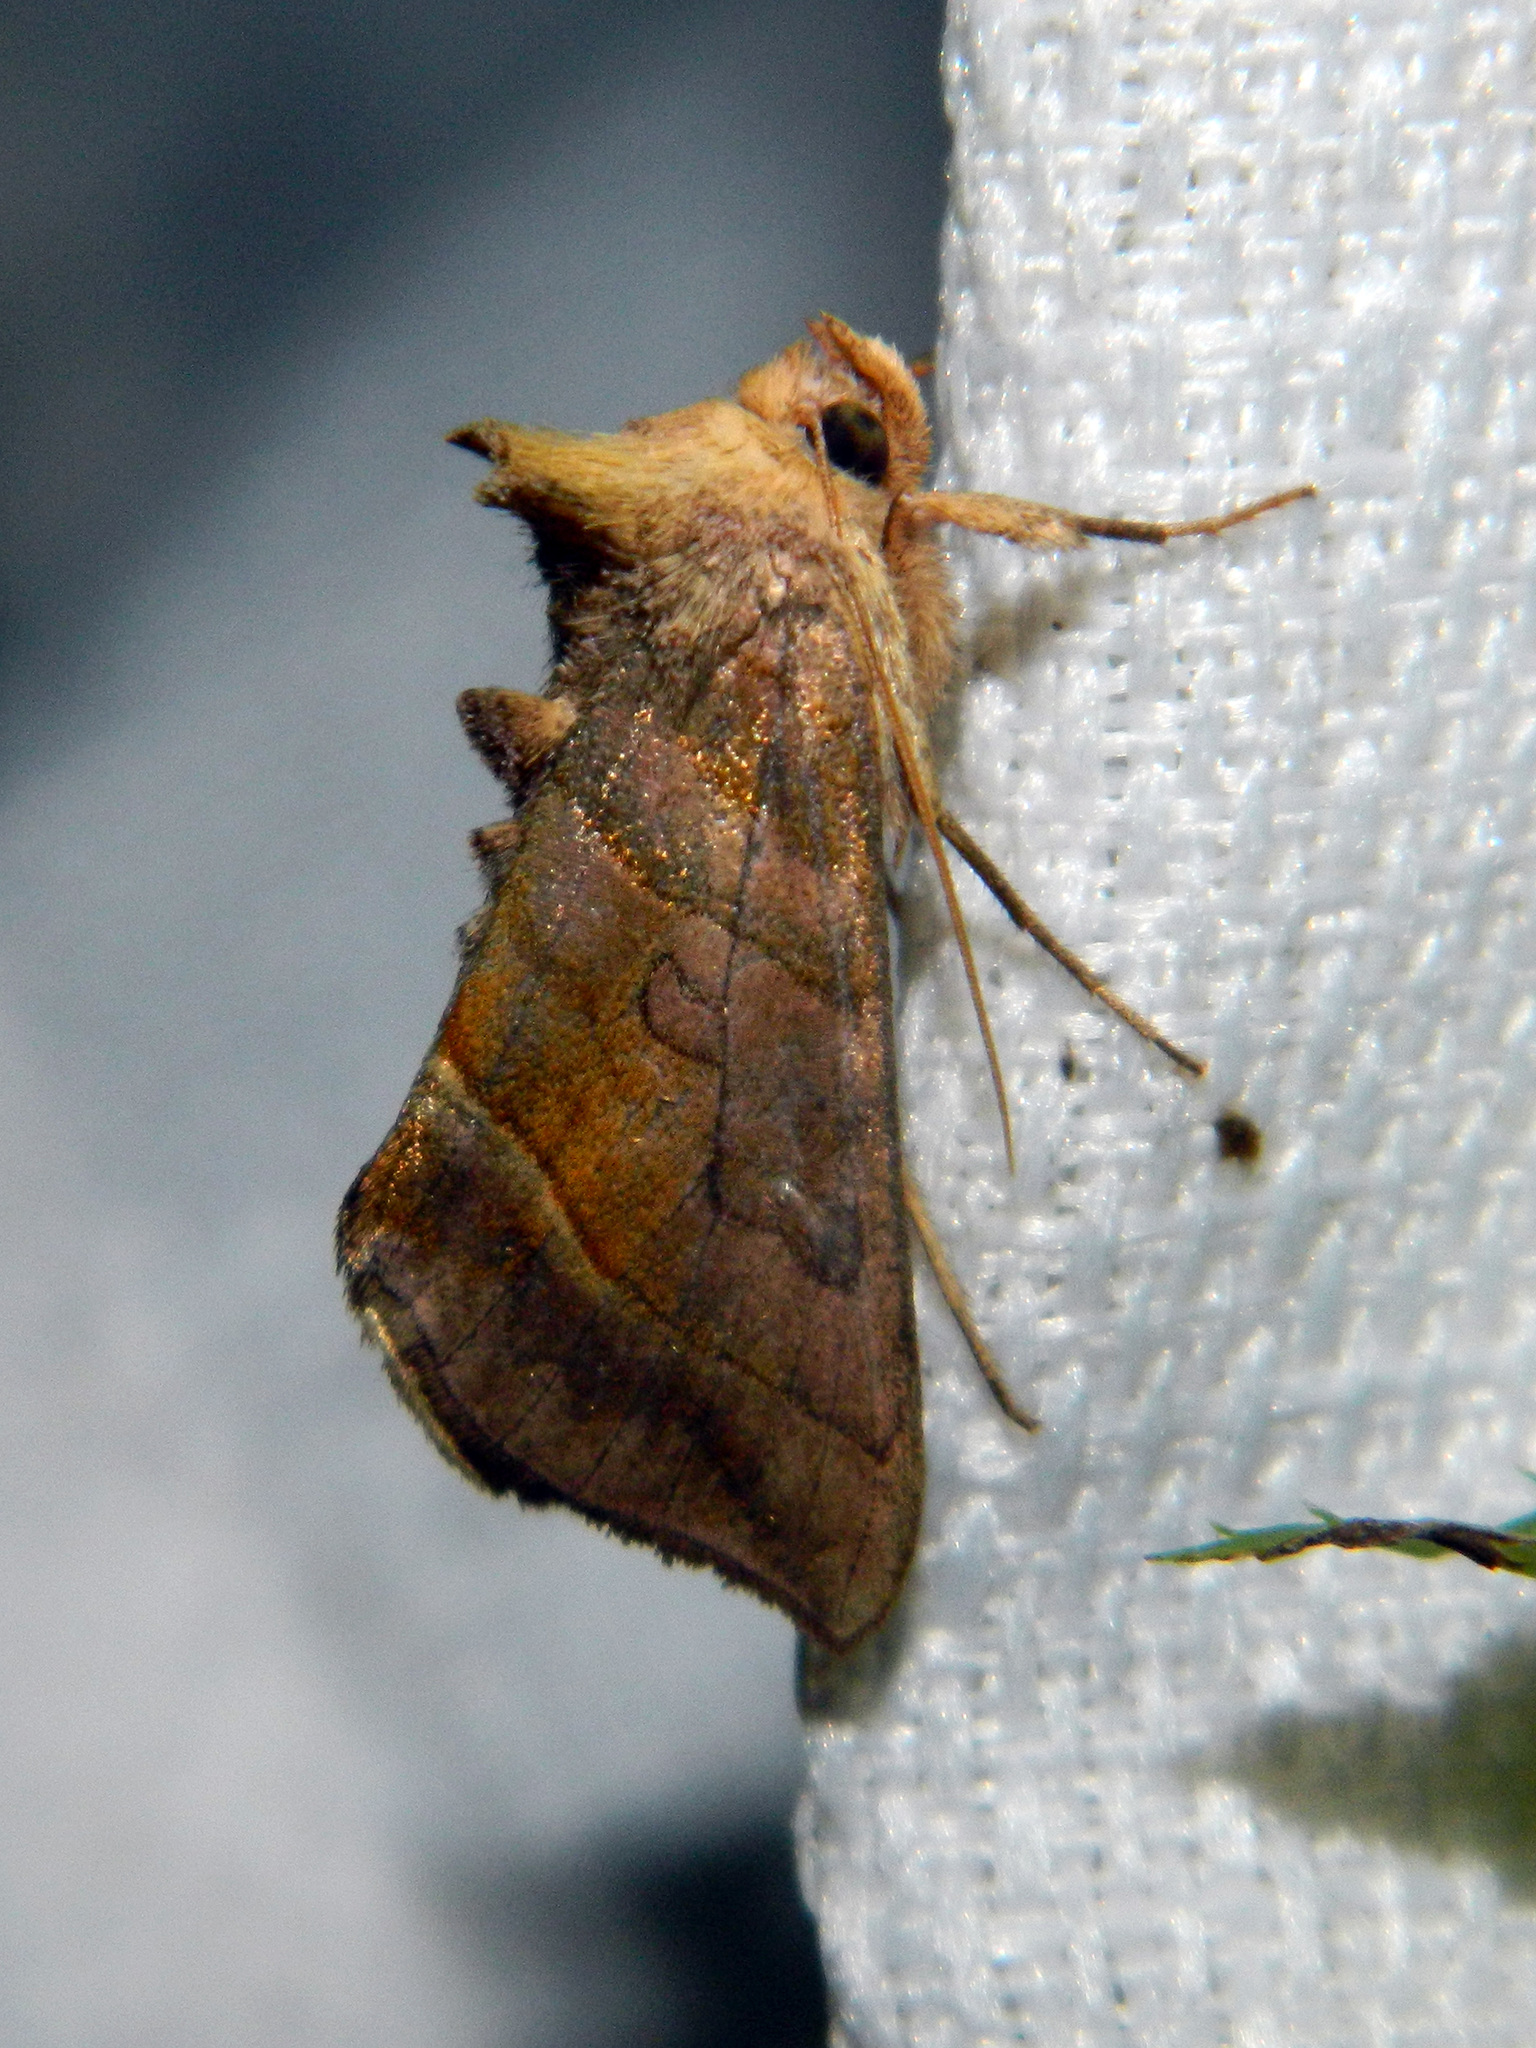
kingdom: Animalia
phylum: Arthropoda
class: Insecta
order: Lepidoptera
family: Noctuidae
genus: Diachrysia
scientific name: Diachrysia aereoides
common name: Dark-spotted looper moth
